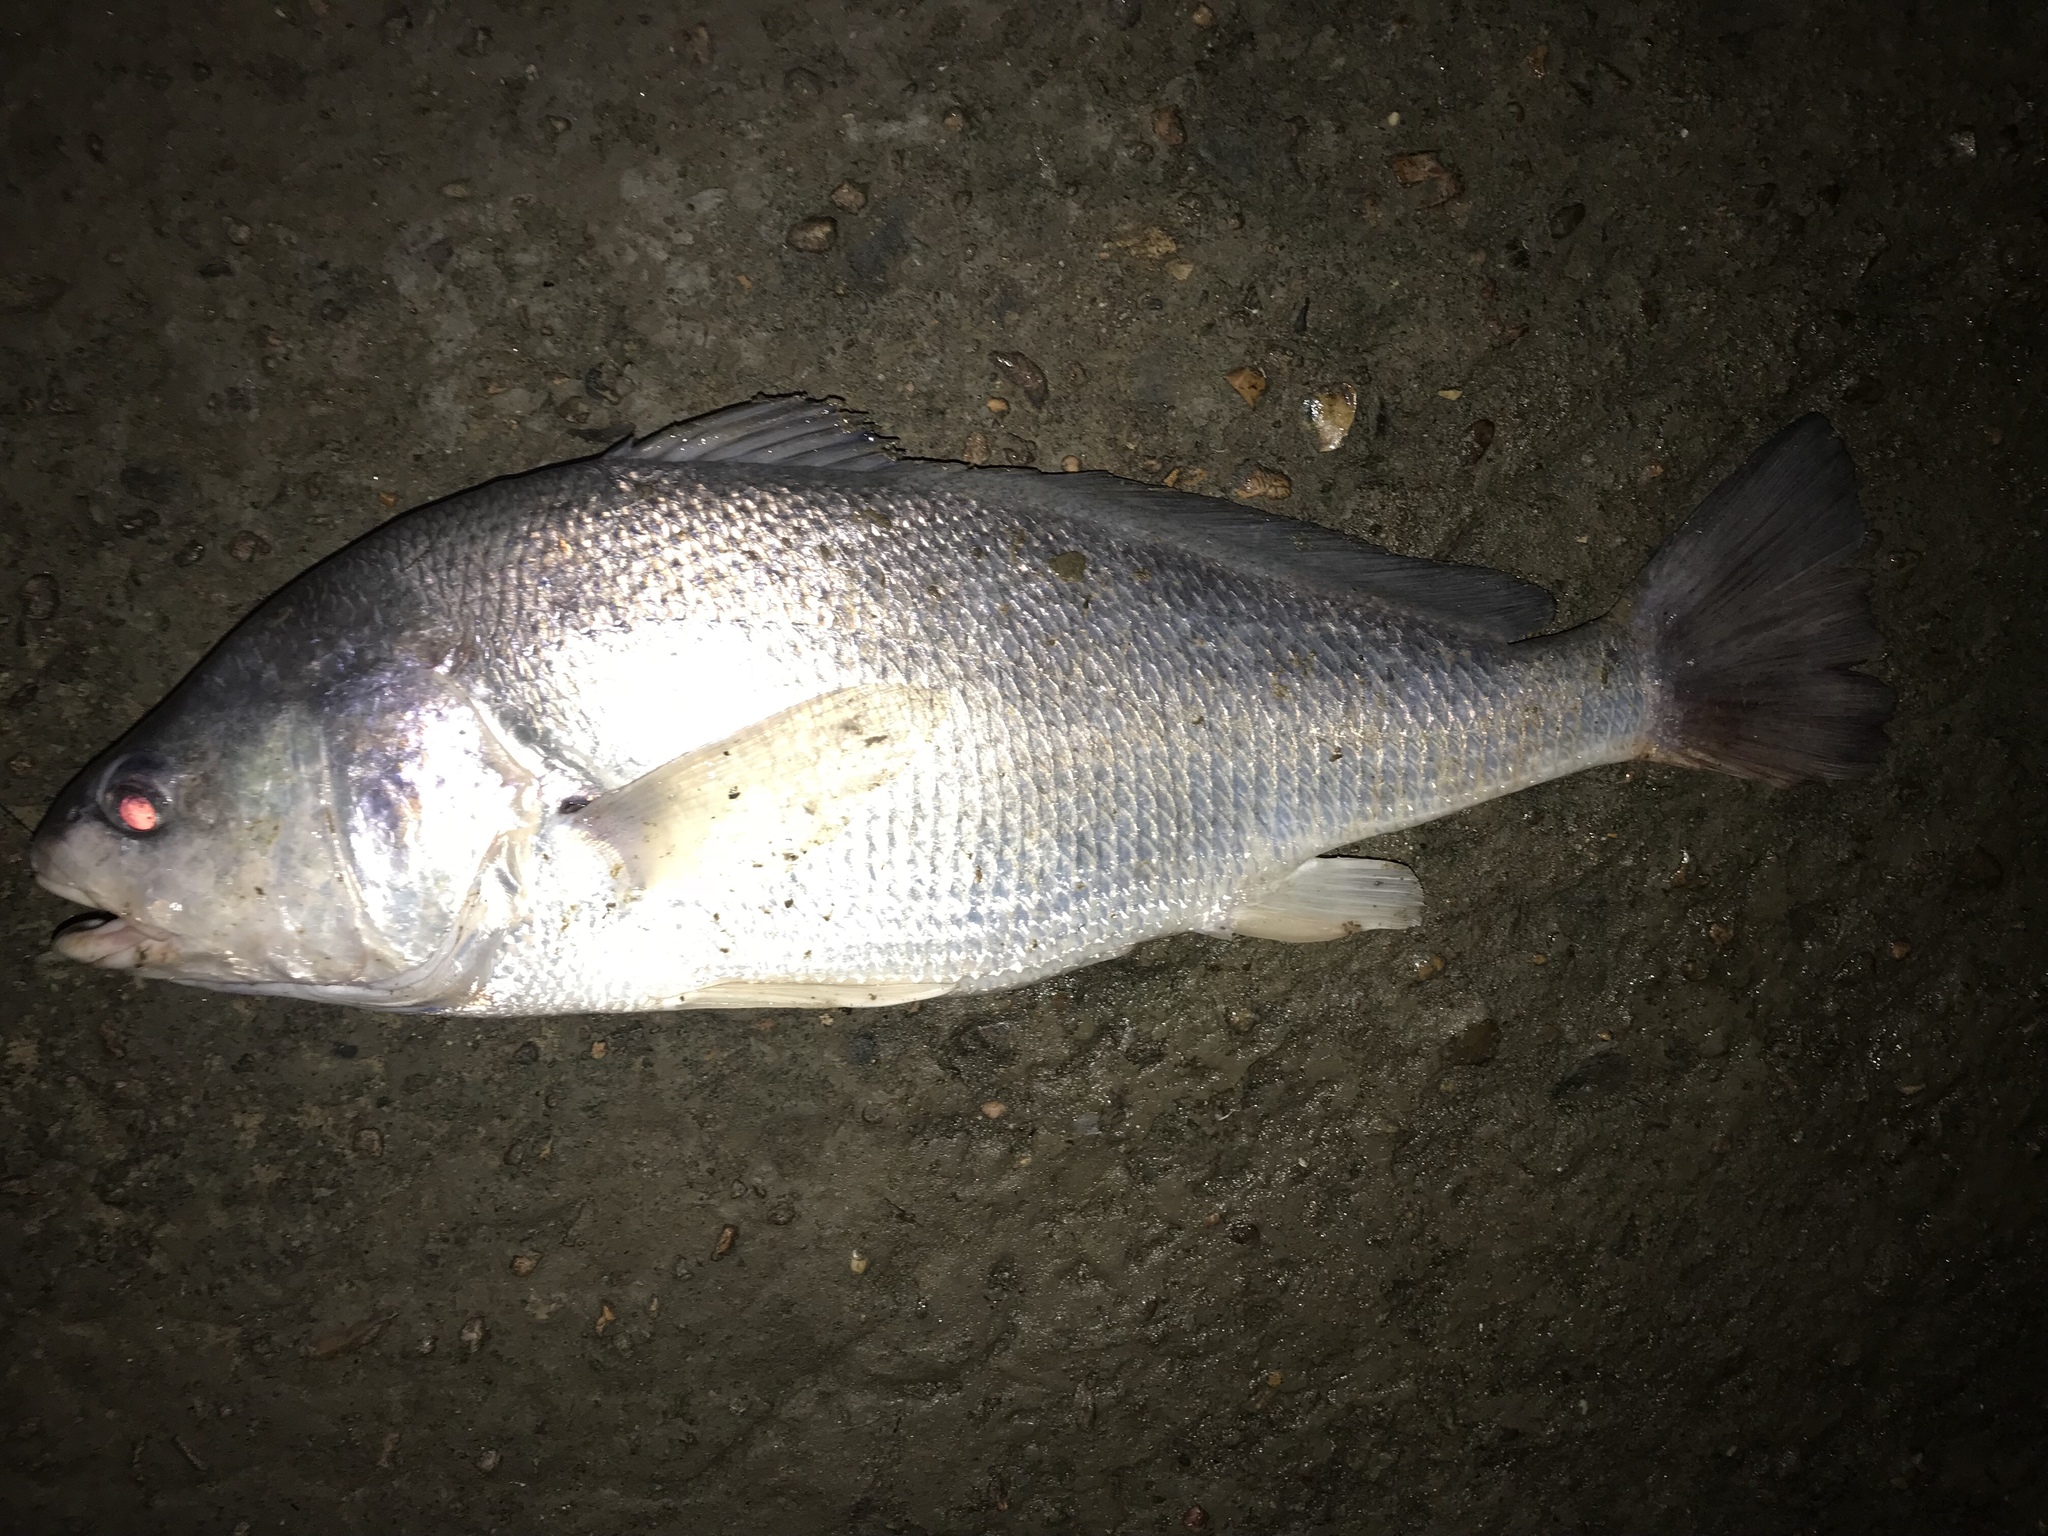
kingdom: Animalia
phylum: Chordata
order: Perciformes
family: Sciaenidae
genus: Aplodinotus
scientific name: Aplodinotus grunniens
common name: Freshwater drum
